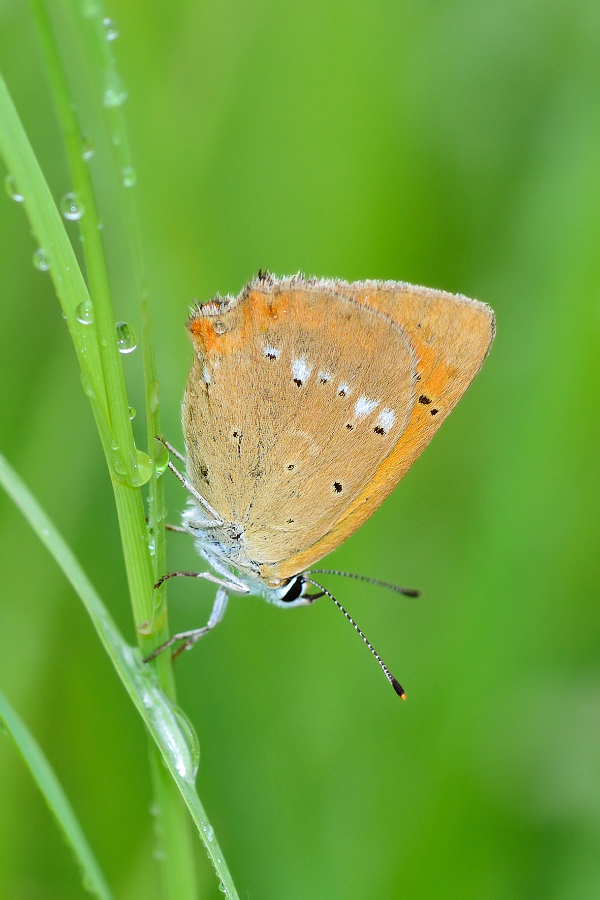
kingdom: Animalia
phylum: Arthropoda
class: Insecta
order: Lepidoptera
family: Lycaenidae
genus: Lycaena
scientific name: Lycaena virgaureae
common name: Scarce copper
